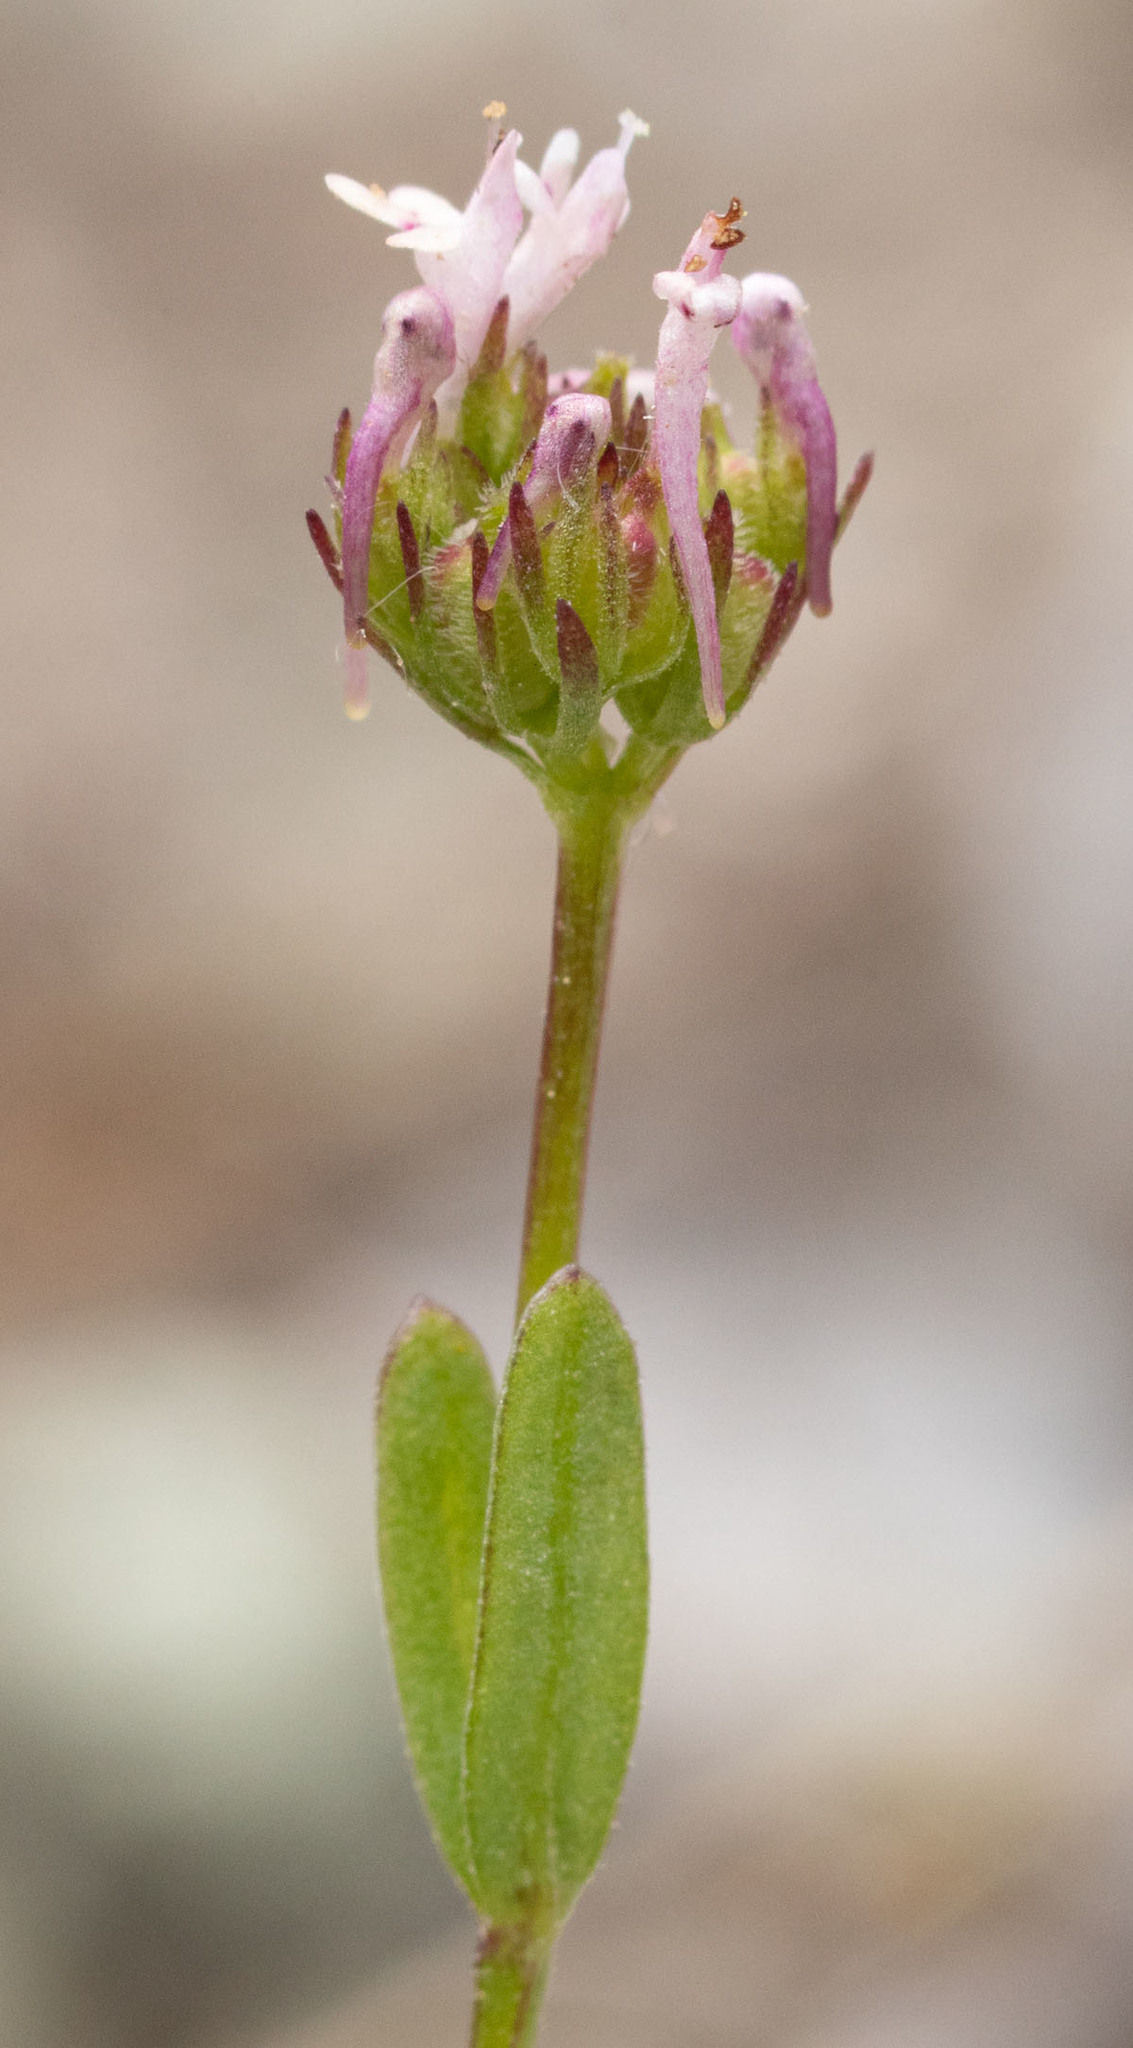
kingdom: Plantae
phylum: Tracheophyta
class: Magnoliopsida
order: Dipsacales
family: Caprifoliaceae
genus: Plectritis
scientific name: Plectritis ciliosa
